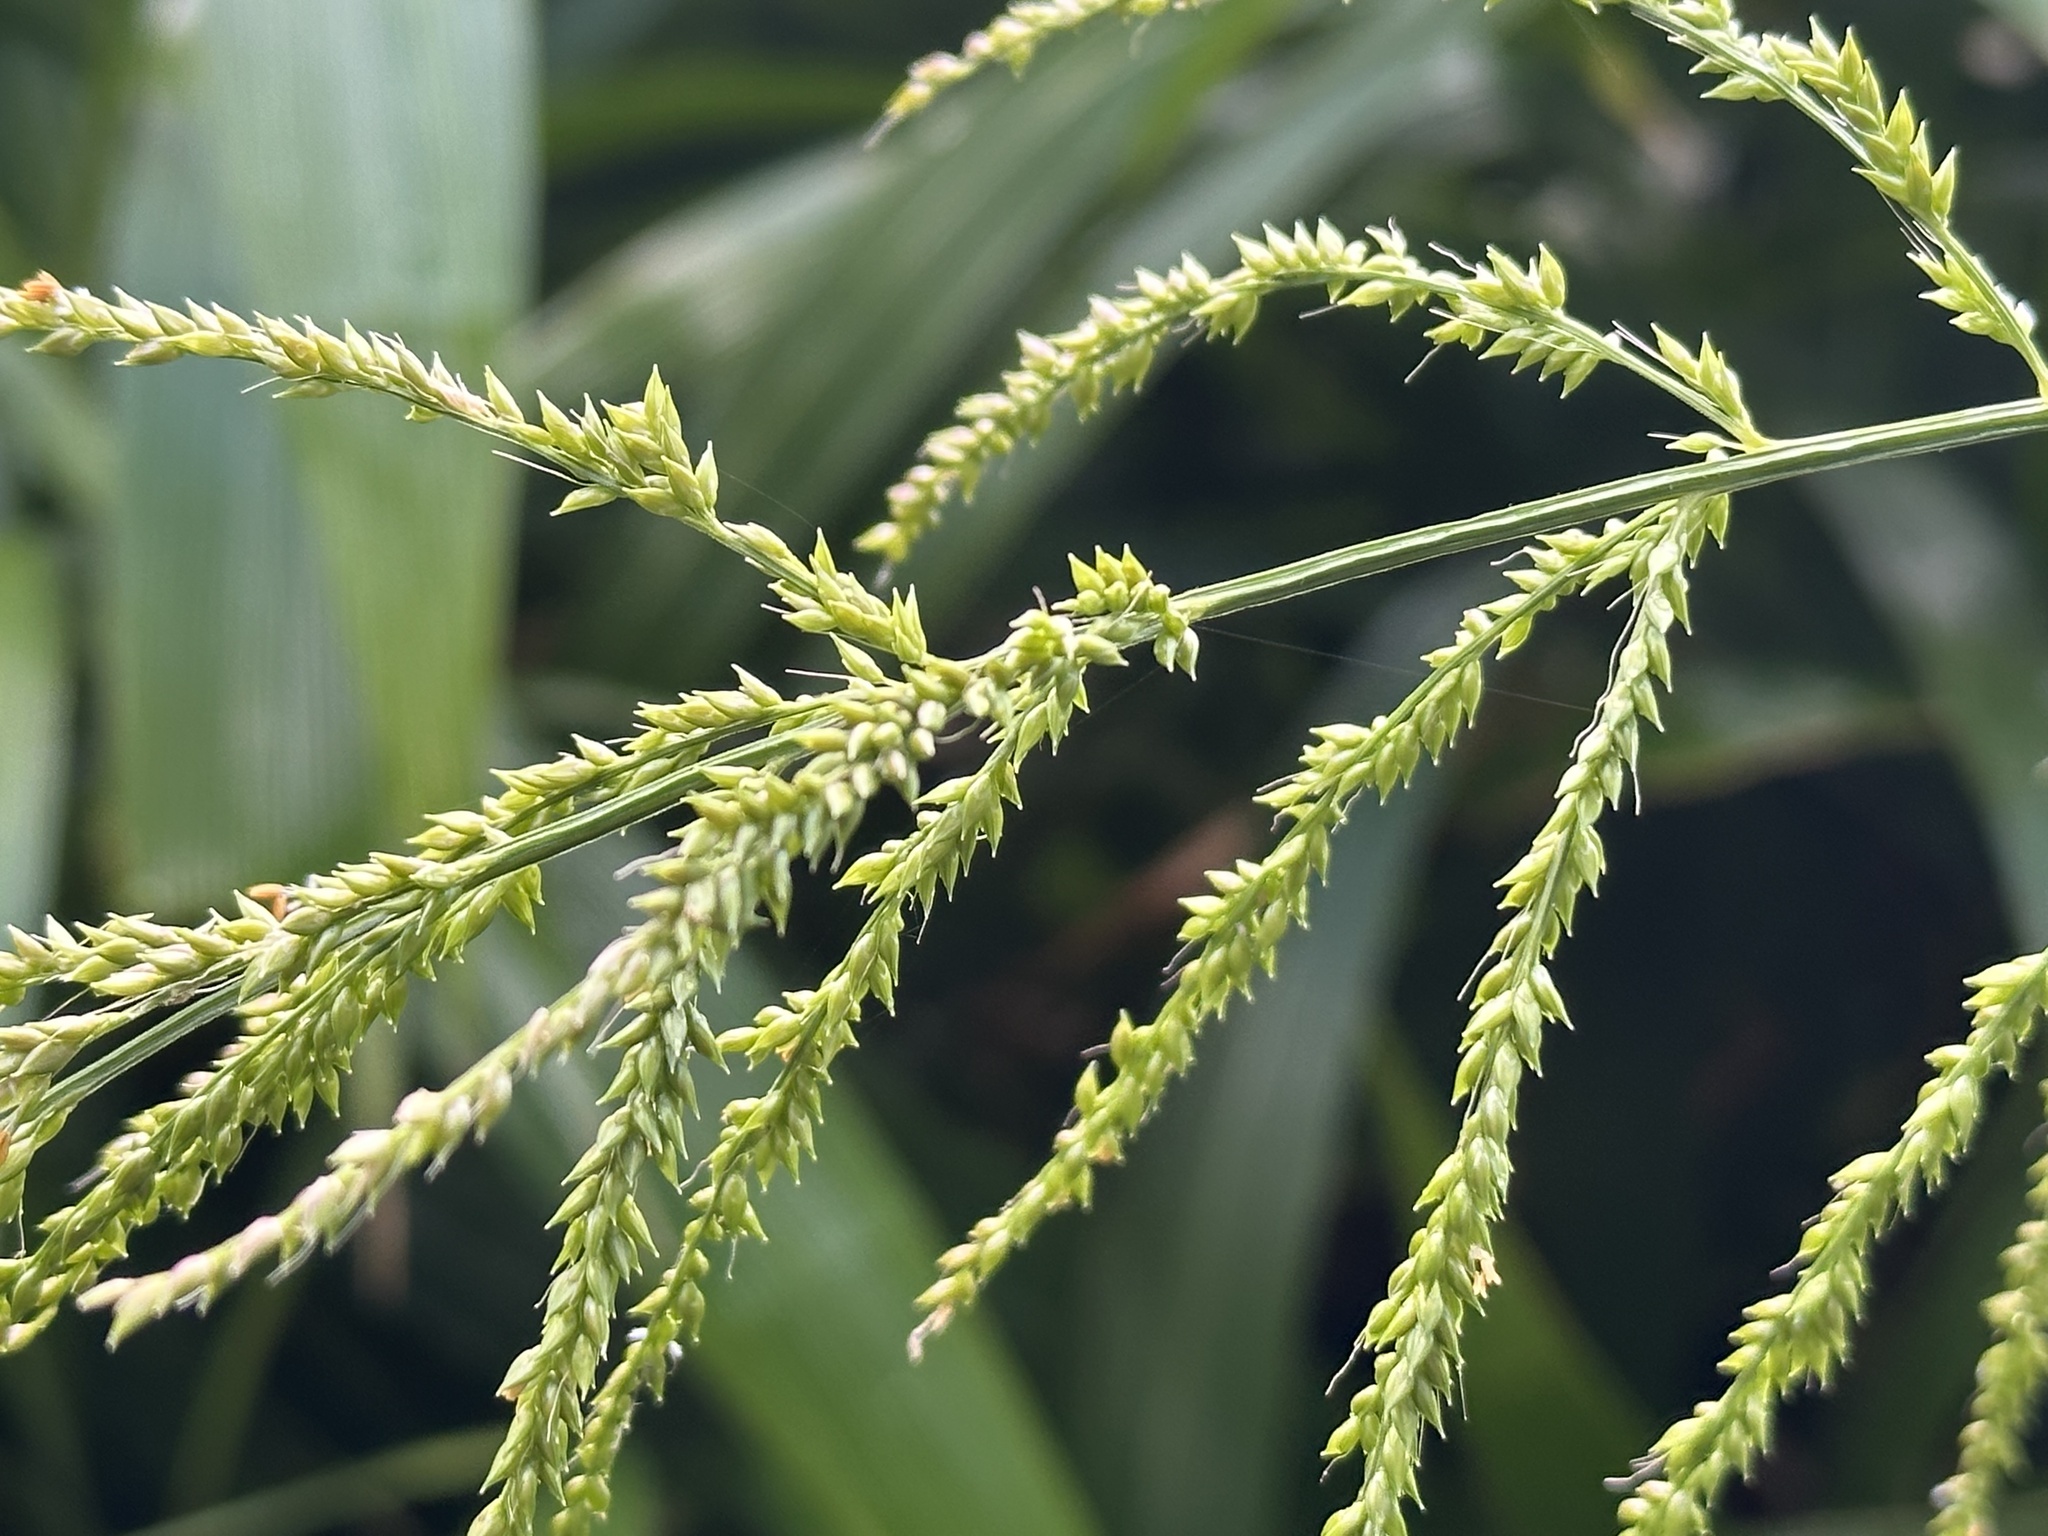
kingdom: Plantae
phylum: Tracheophyta
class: Liliopsida
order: Poales
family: Poaceae
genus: Setaria
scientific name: Setaria palmifolia
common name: Broadleaved bristlegrass
